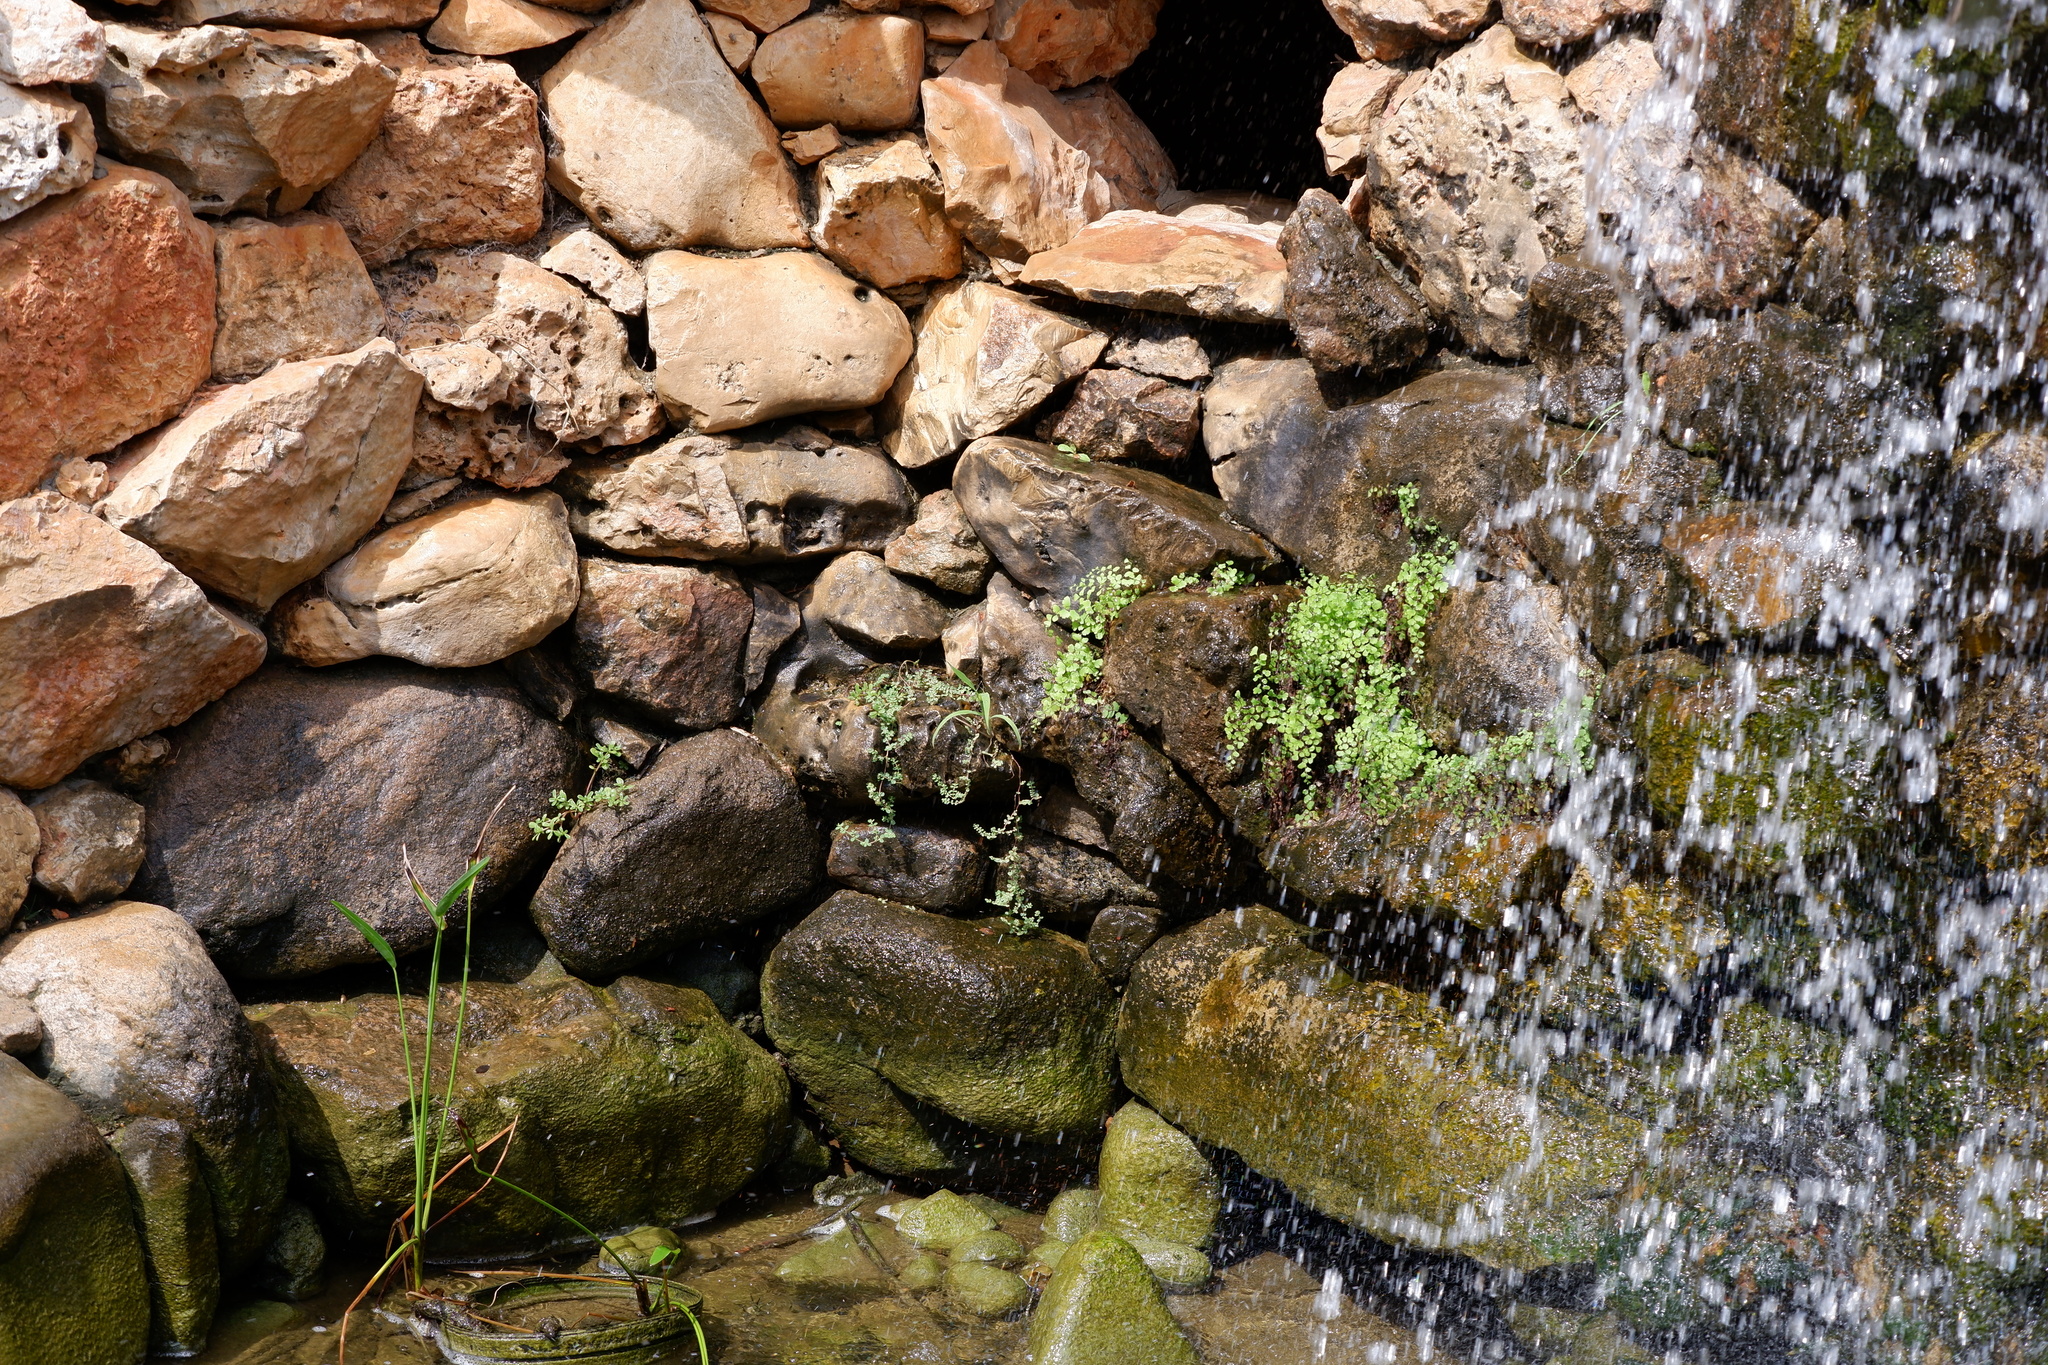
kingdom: Plantae
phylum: Tracheophyta
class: Polypodiopsida
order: Polypodiales
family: Pteridaceae
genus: Adiantum
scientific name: Adiantum capillus-veneris
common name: Maidenhair fern
